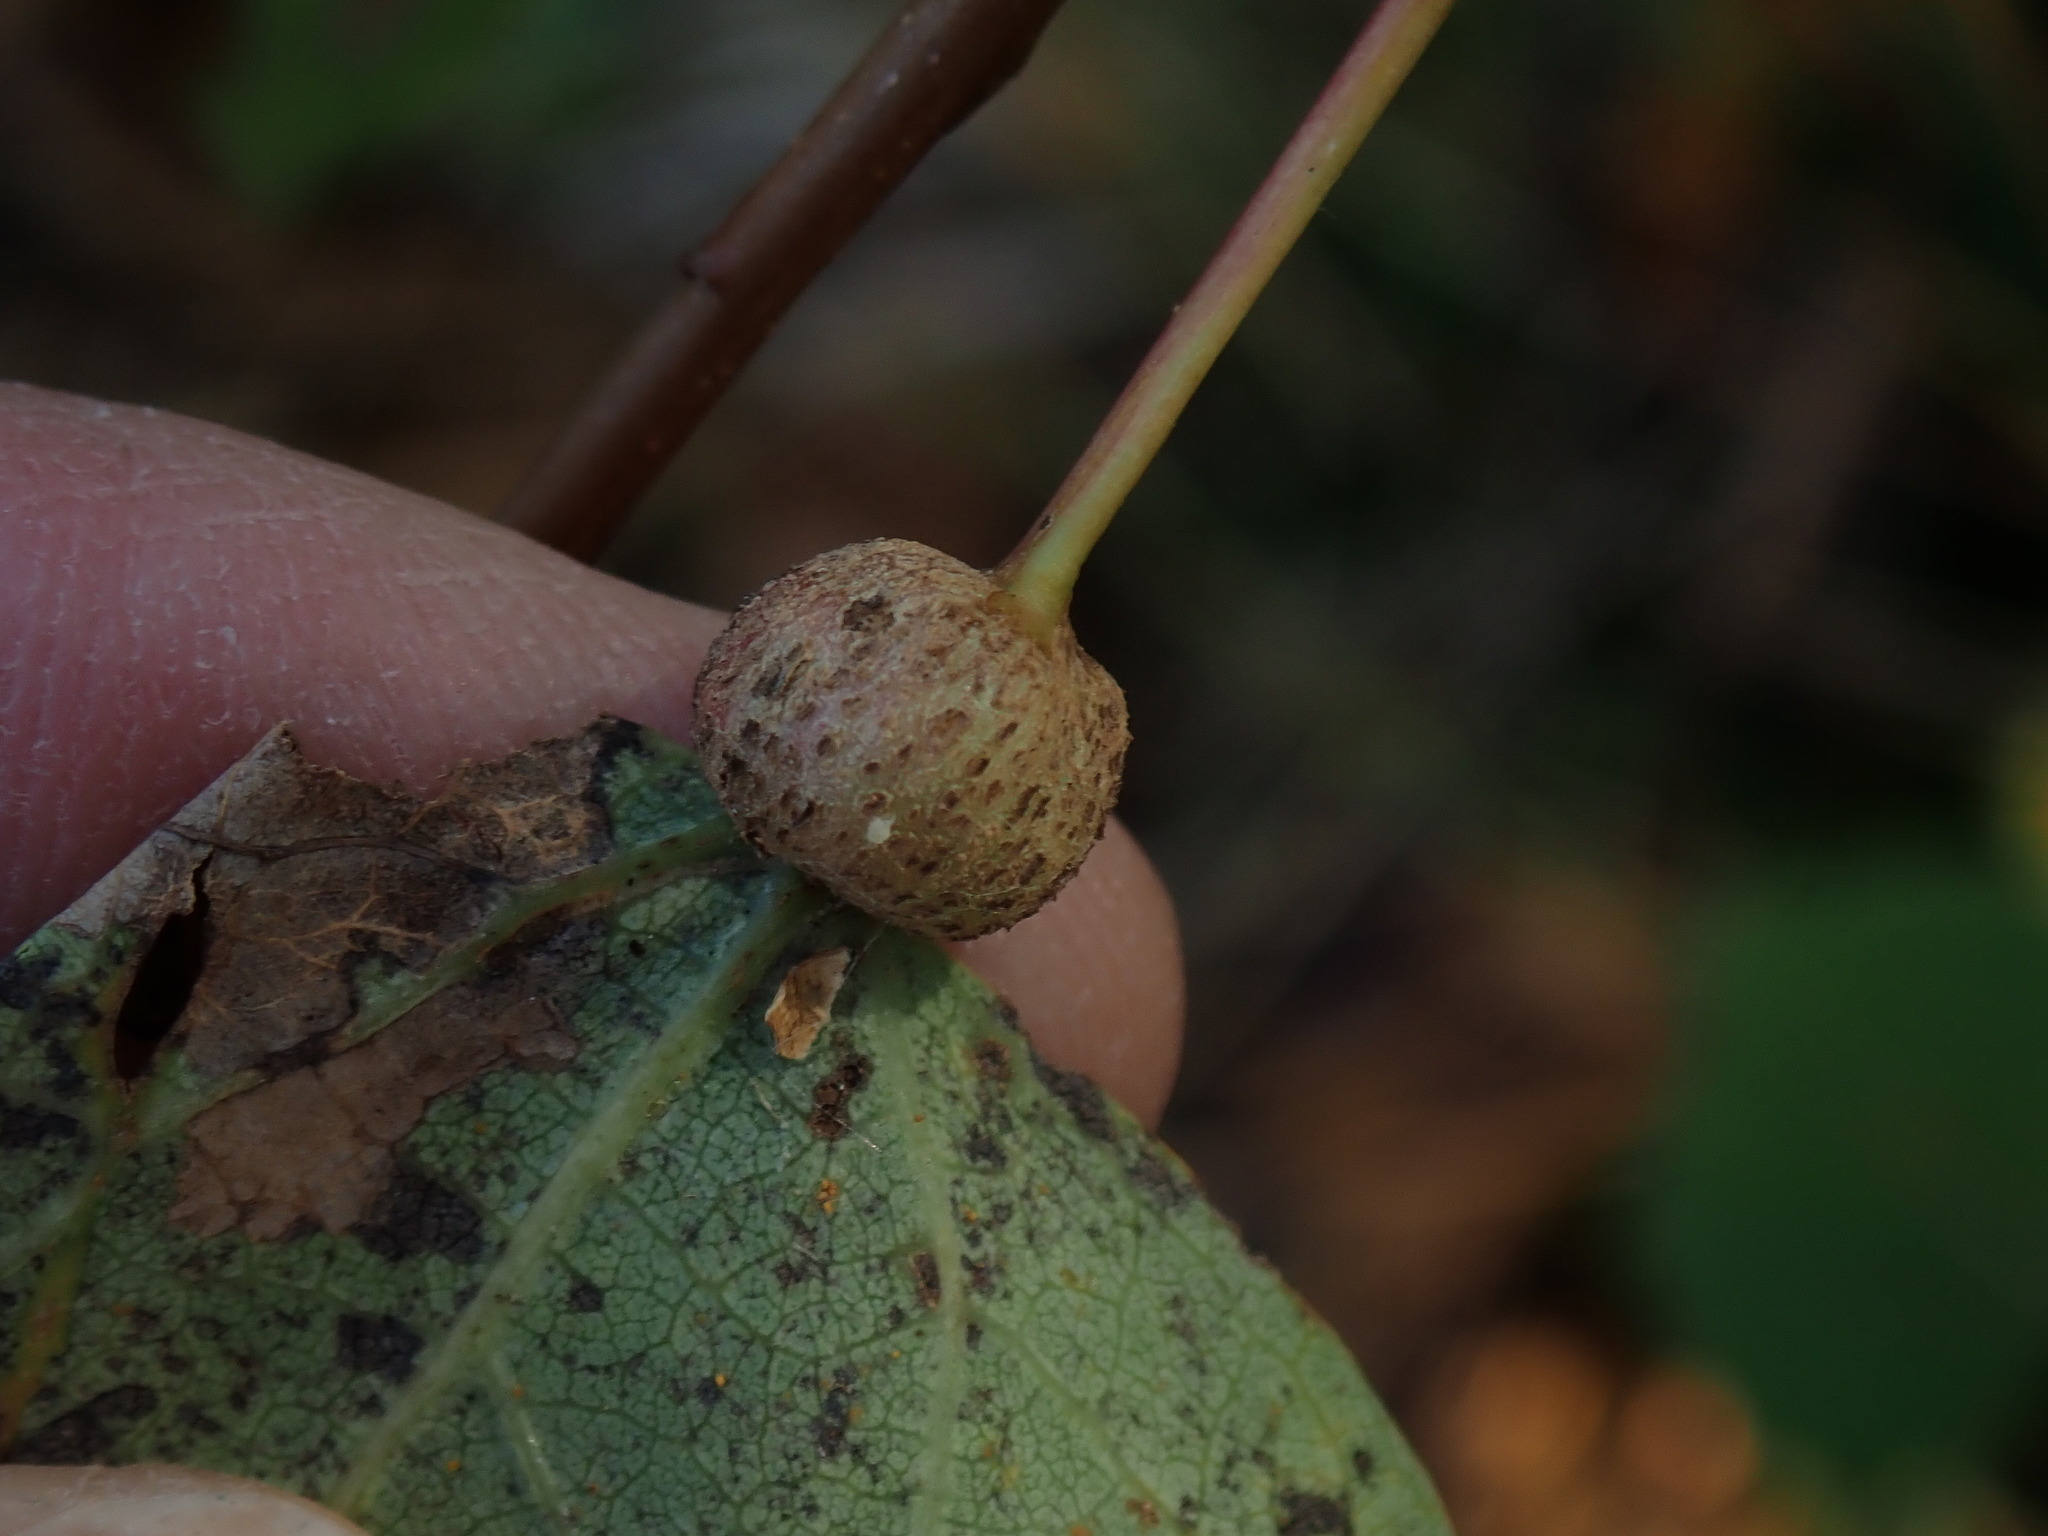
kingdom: Animalia
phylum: Arthropoda
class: Insecta
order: Lepidoptera
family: Nepticulidae
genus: Ectoedemia
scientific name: Ectoedemia populella
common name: Aspen petiole gall moth
